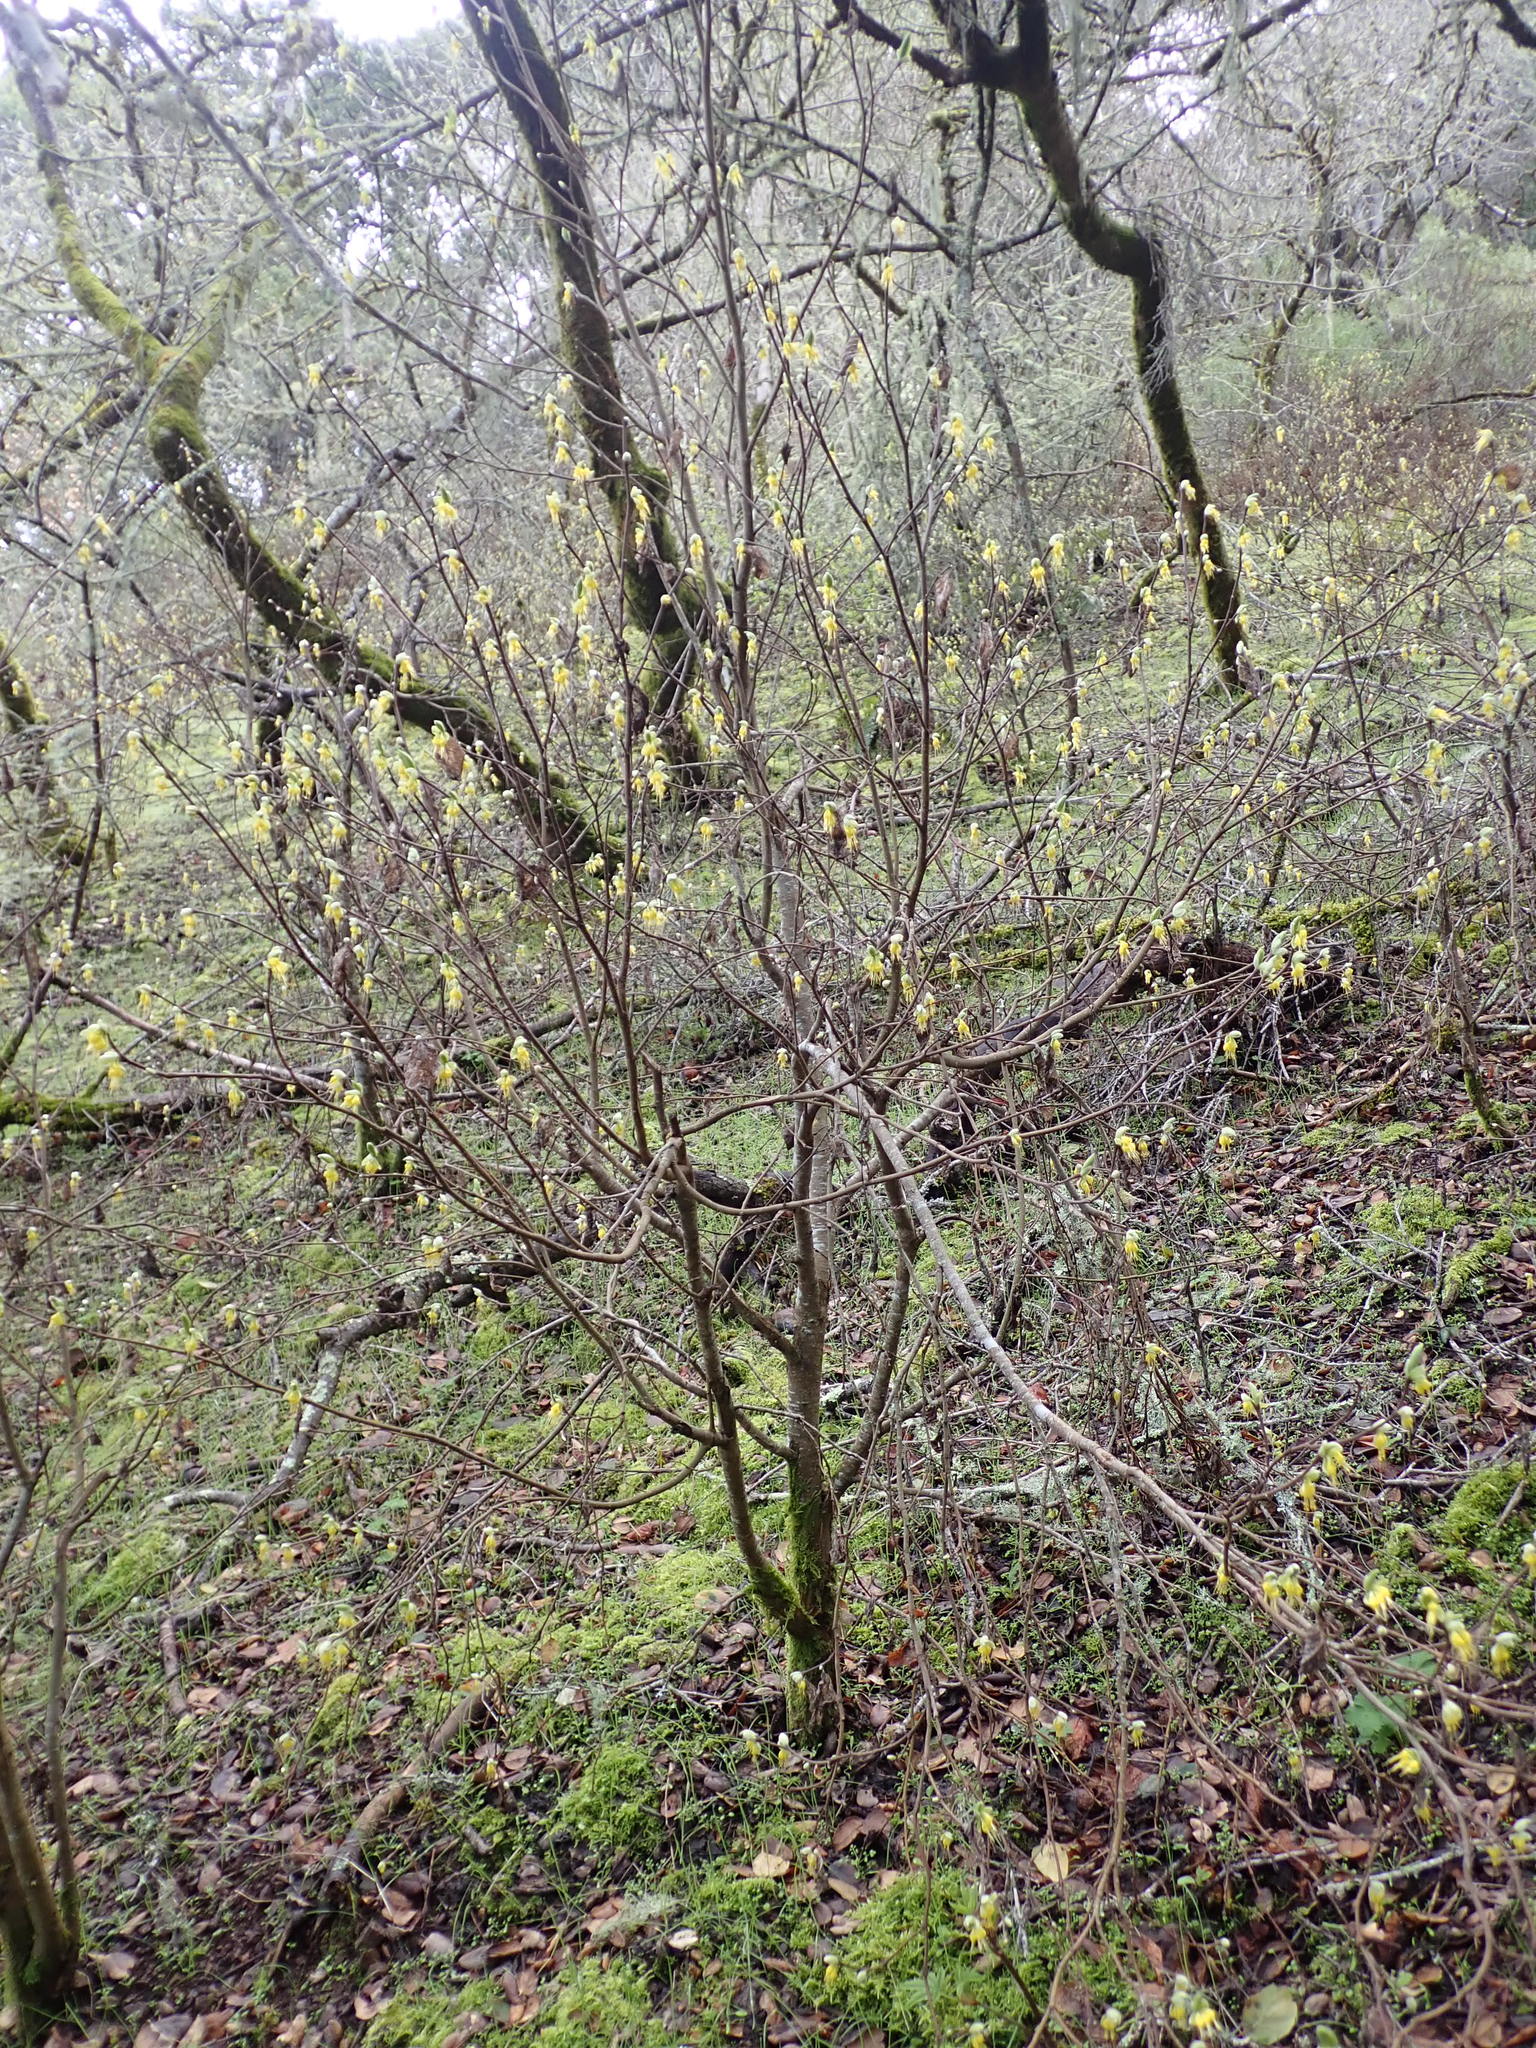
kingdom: Plantae
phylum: Tracheophyta
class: Magnoliopsida
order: Malvales
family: Thymelaeaceae
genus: Dirca
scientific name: Dirca occidentalis
